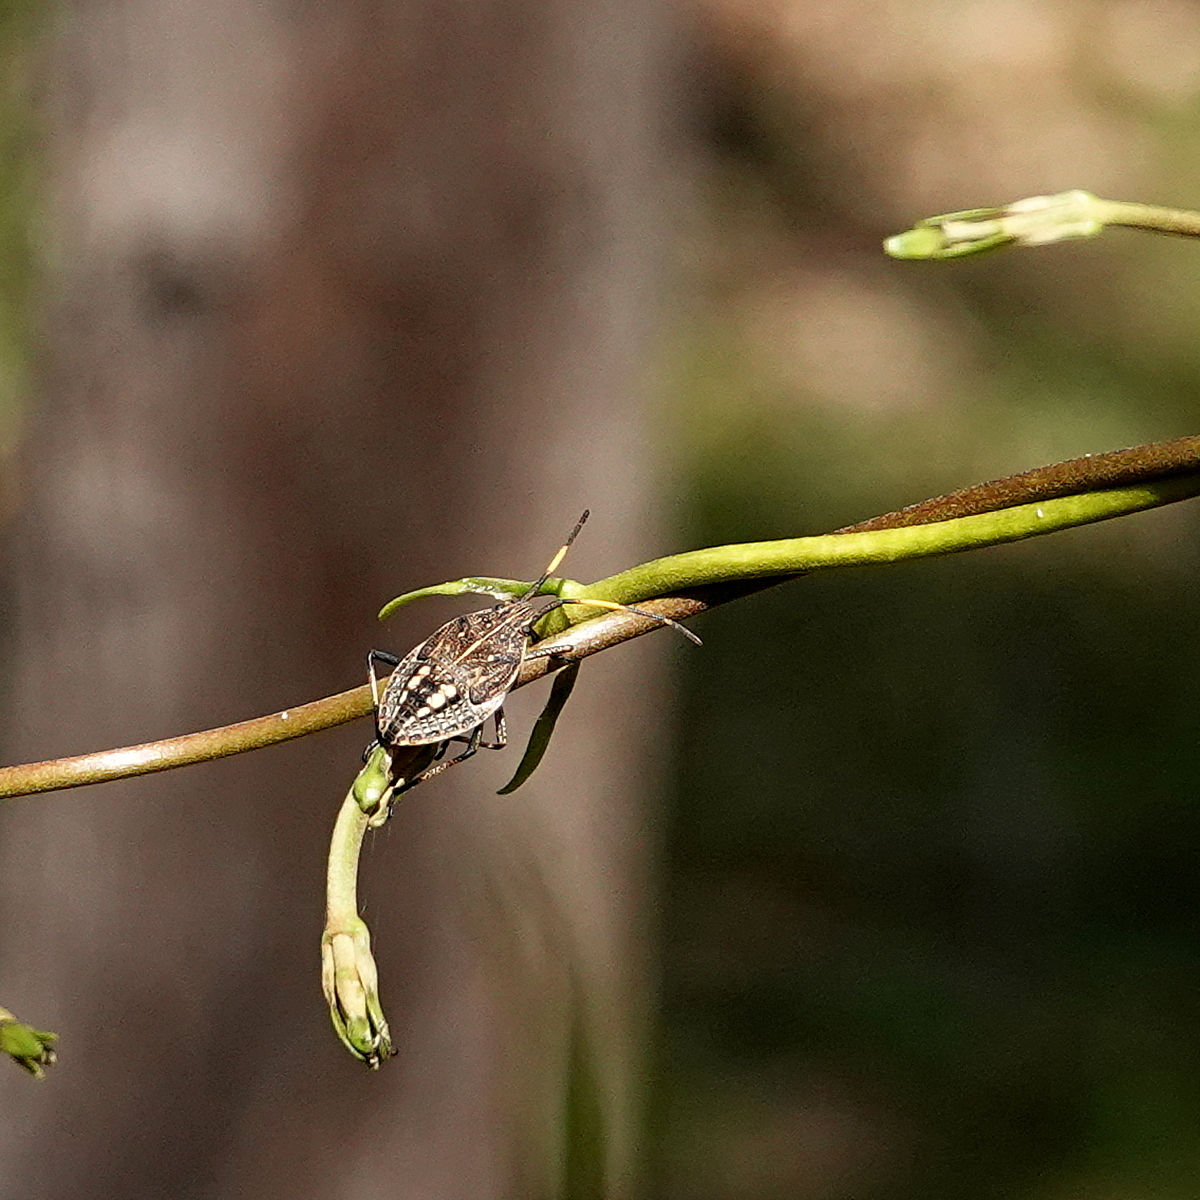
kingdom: Animalia
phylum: Arthropoda
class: Insecta
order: Hemiptera
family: Pentatomidae
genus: Poecilometis
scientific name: Poecilometis
